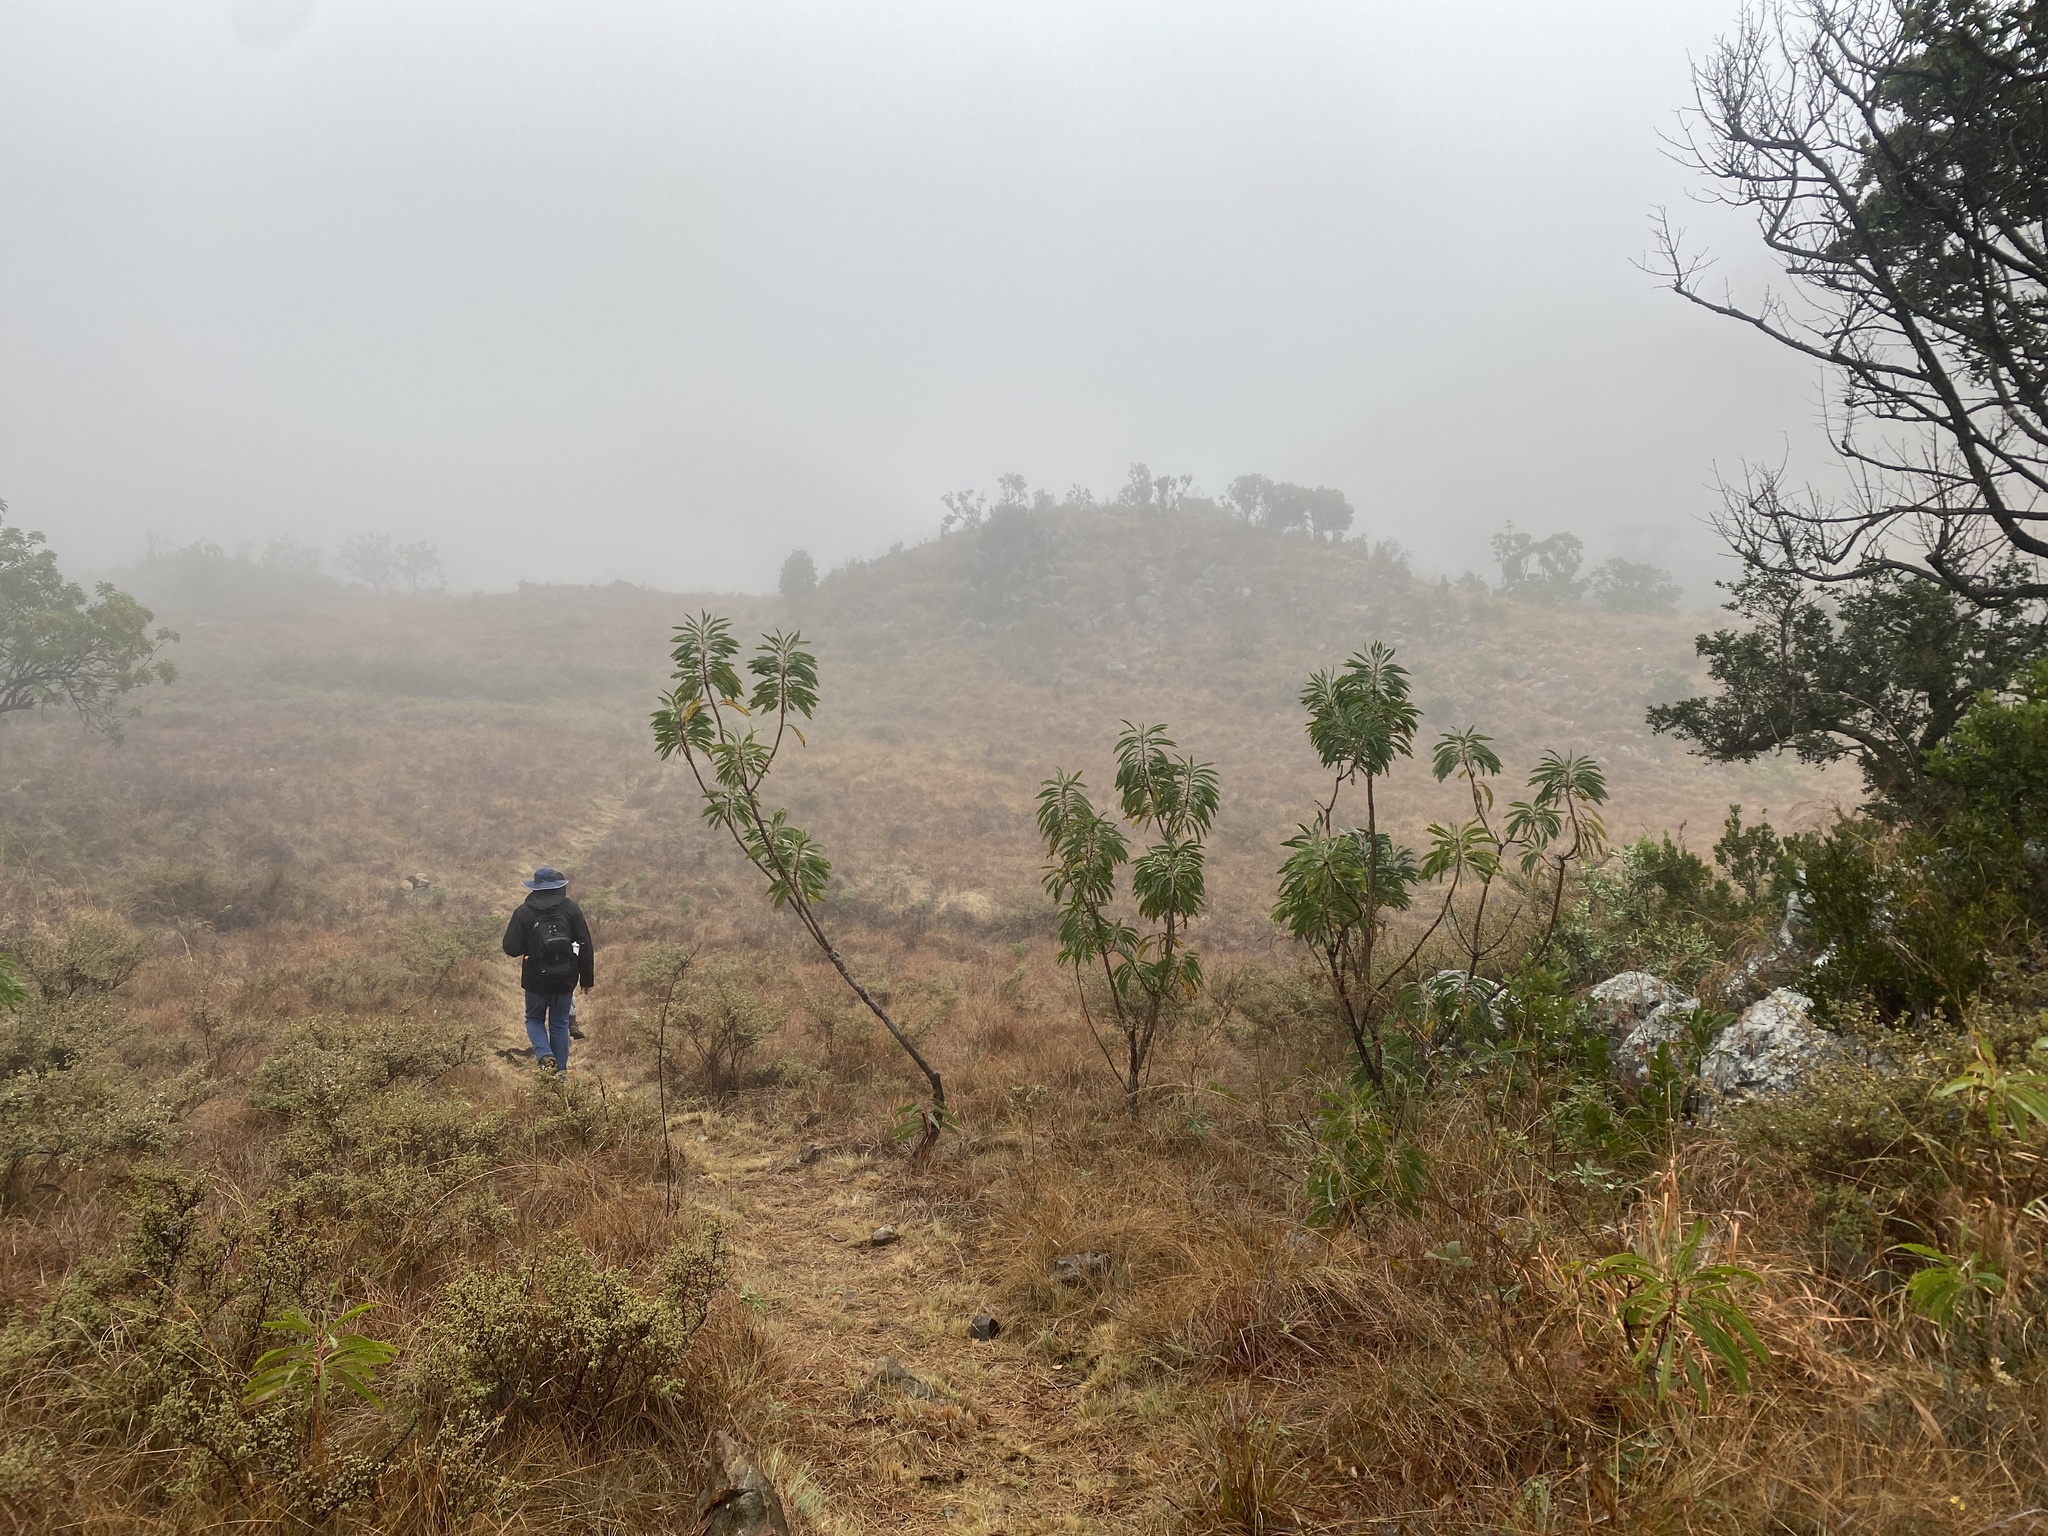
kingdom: Plantae
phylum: Tracheophyta
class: Magnoliopsida
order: Proteales
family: Proteaceae
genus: Protea
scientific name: Protea caffra
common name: Common sugarbush
